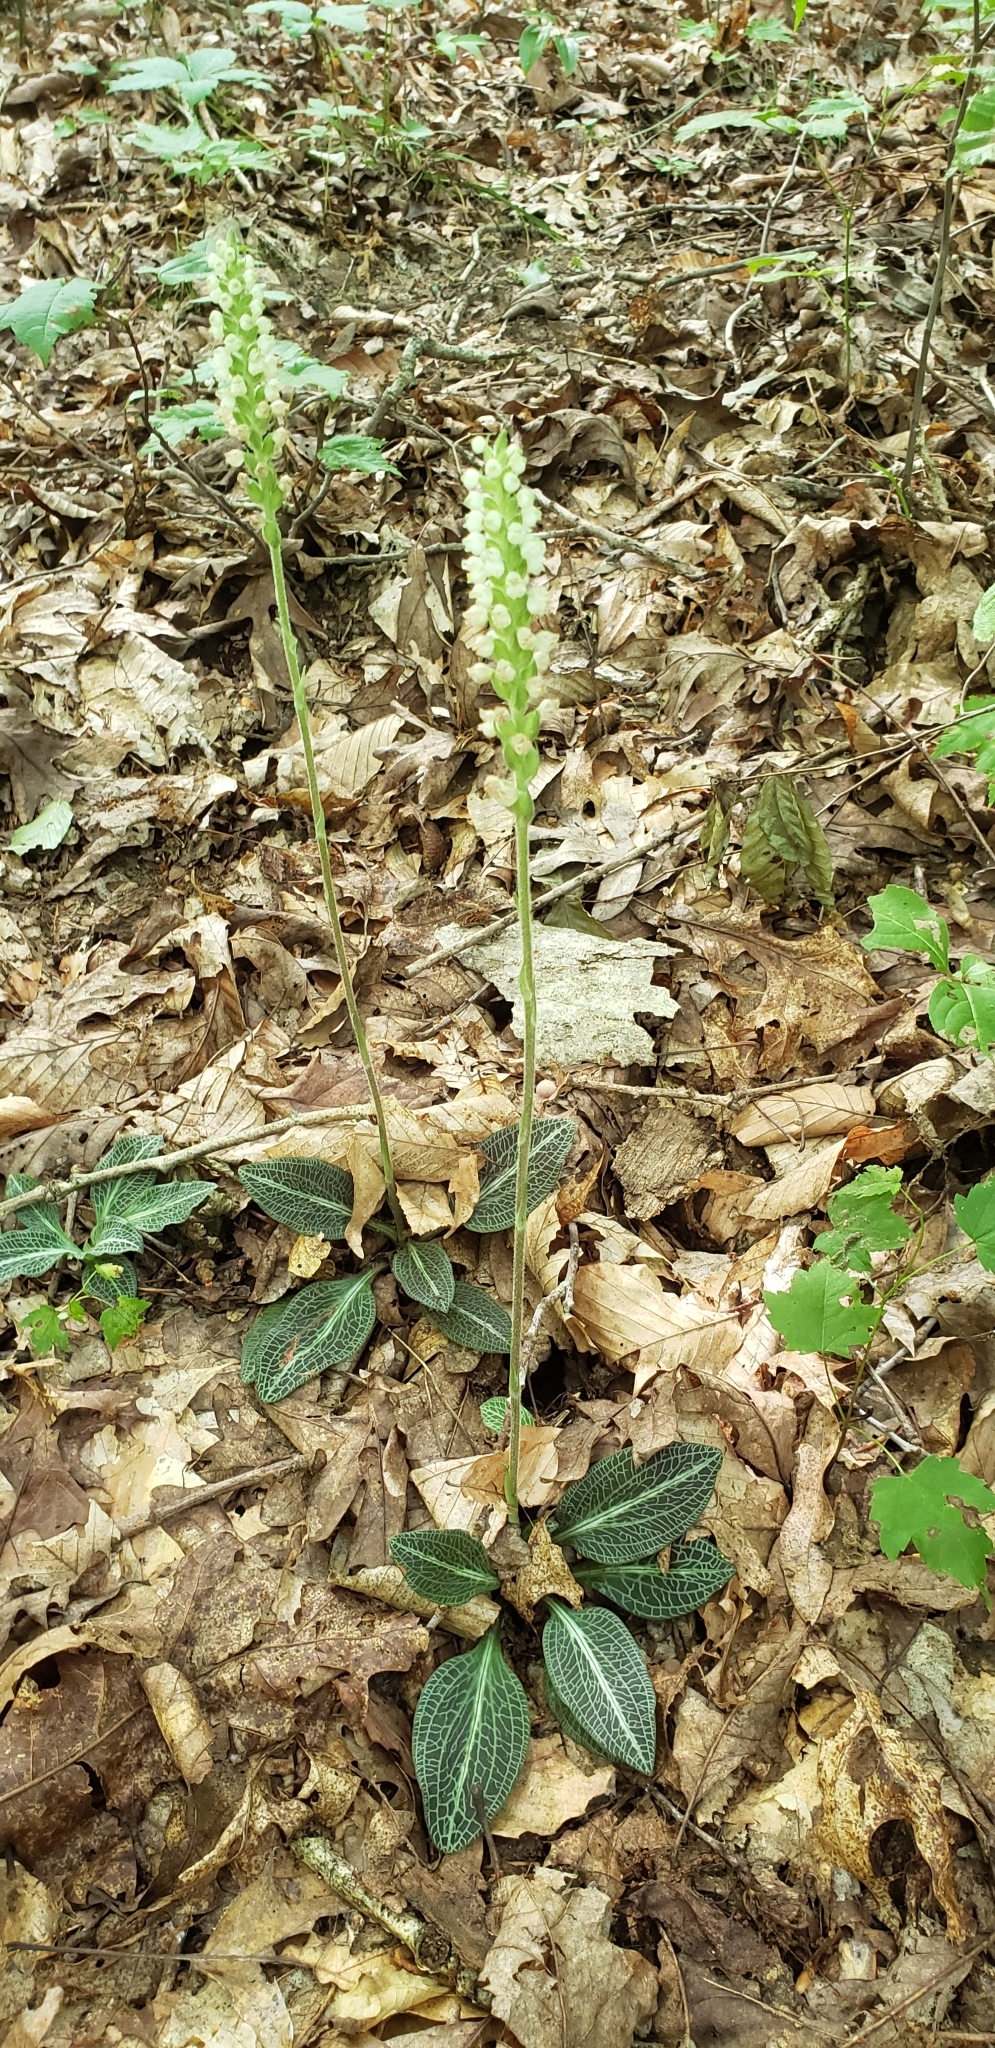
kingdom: Plantae
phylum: Tracheophyta
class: Liliopsida
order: Asparagales
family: Orchidaceae
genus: Goodyera
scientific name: Goodyera pubescens
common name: Downy rattlesnake-plantain
